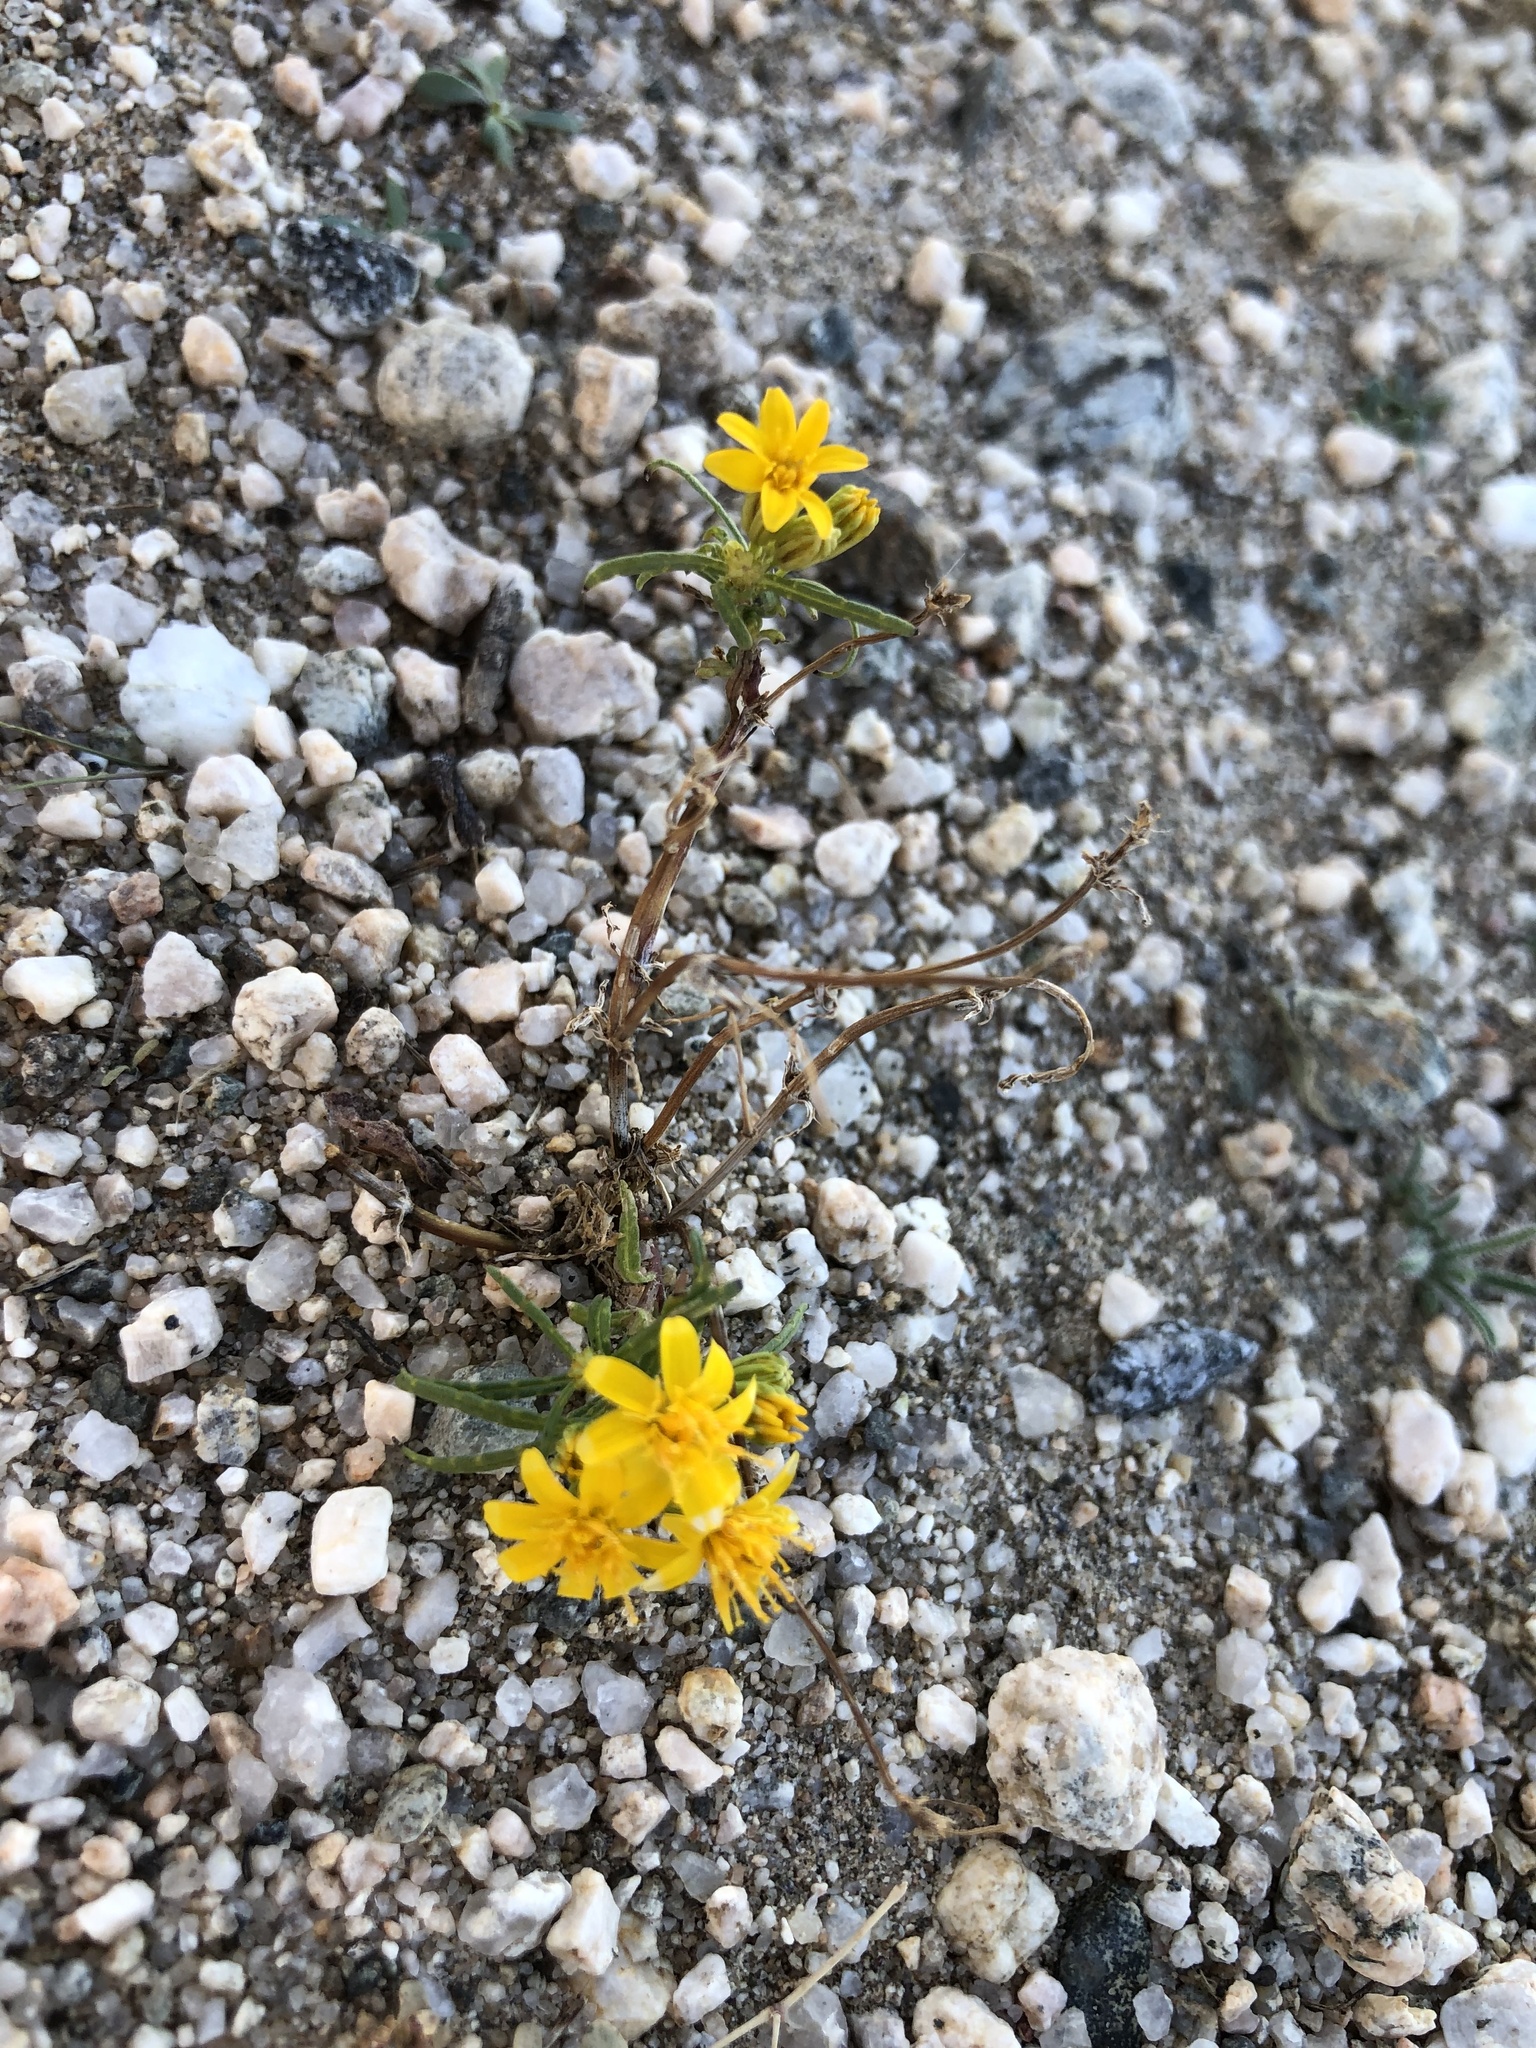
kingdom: Plantae
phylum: Tracheophyta
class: Magnoliopsida
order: Asterales
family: Asteraceae
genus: Pectis
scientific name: Pectis papposa
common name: Many-bristle chinchweed
